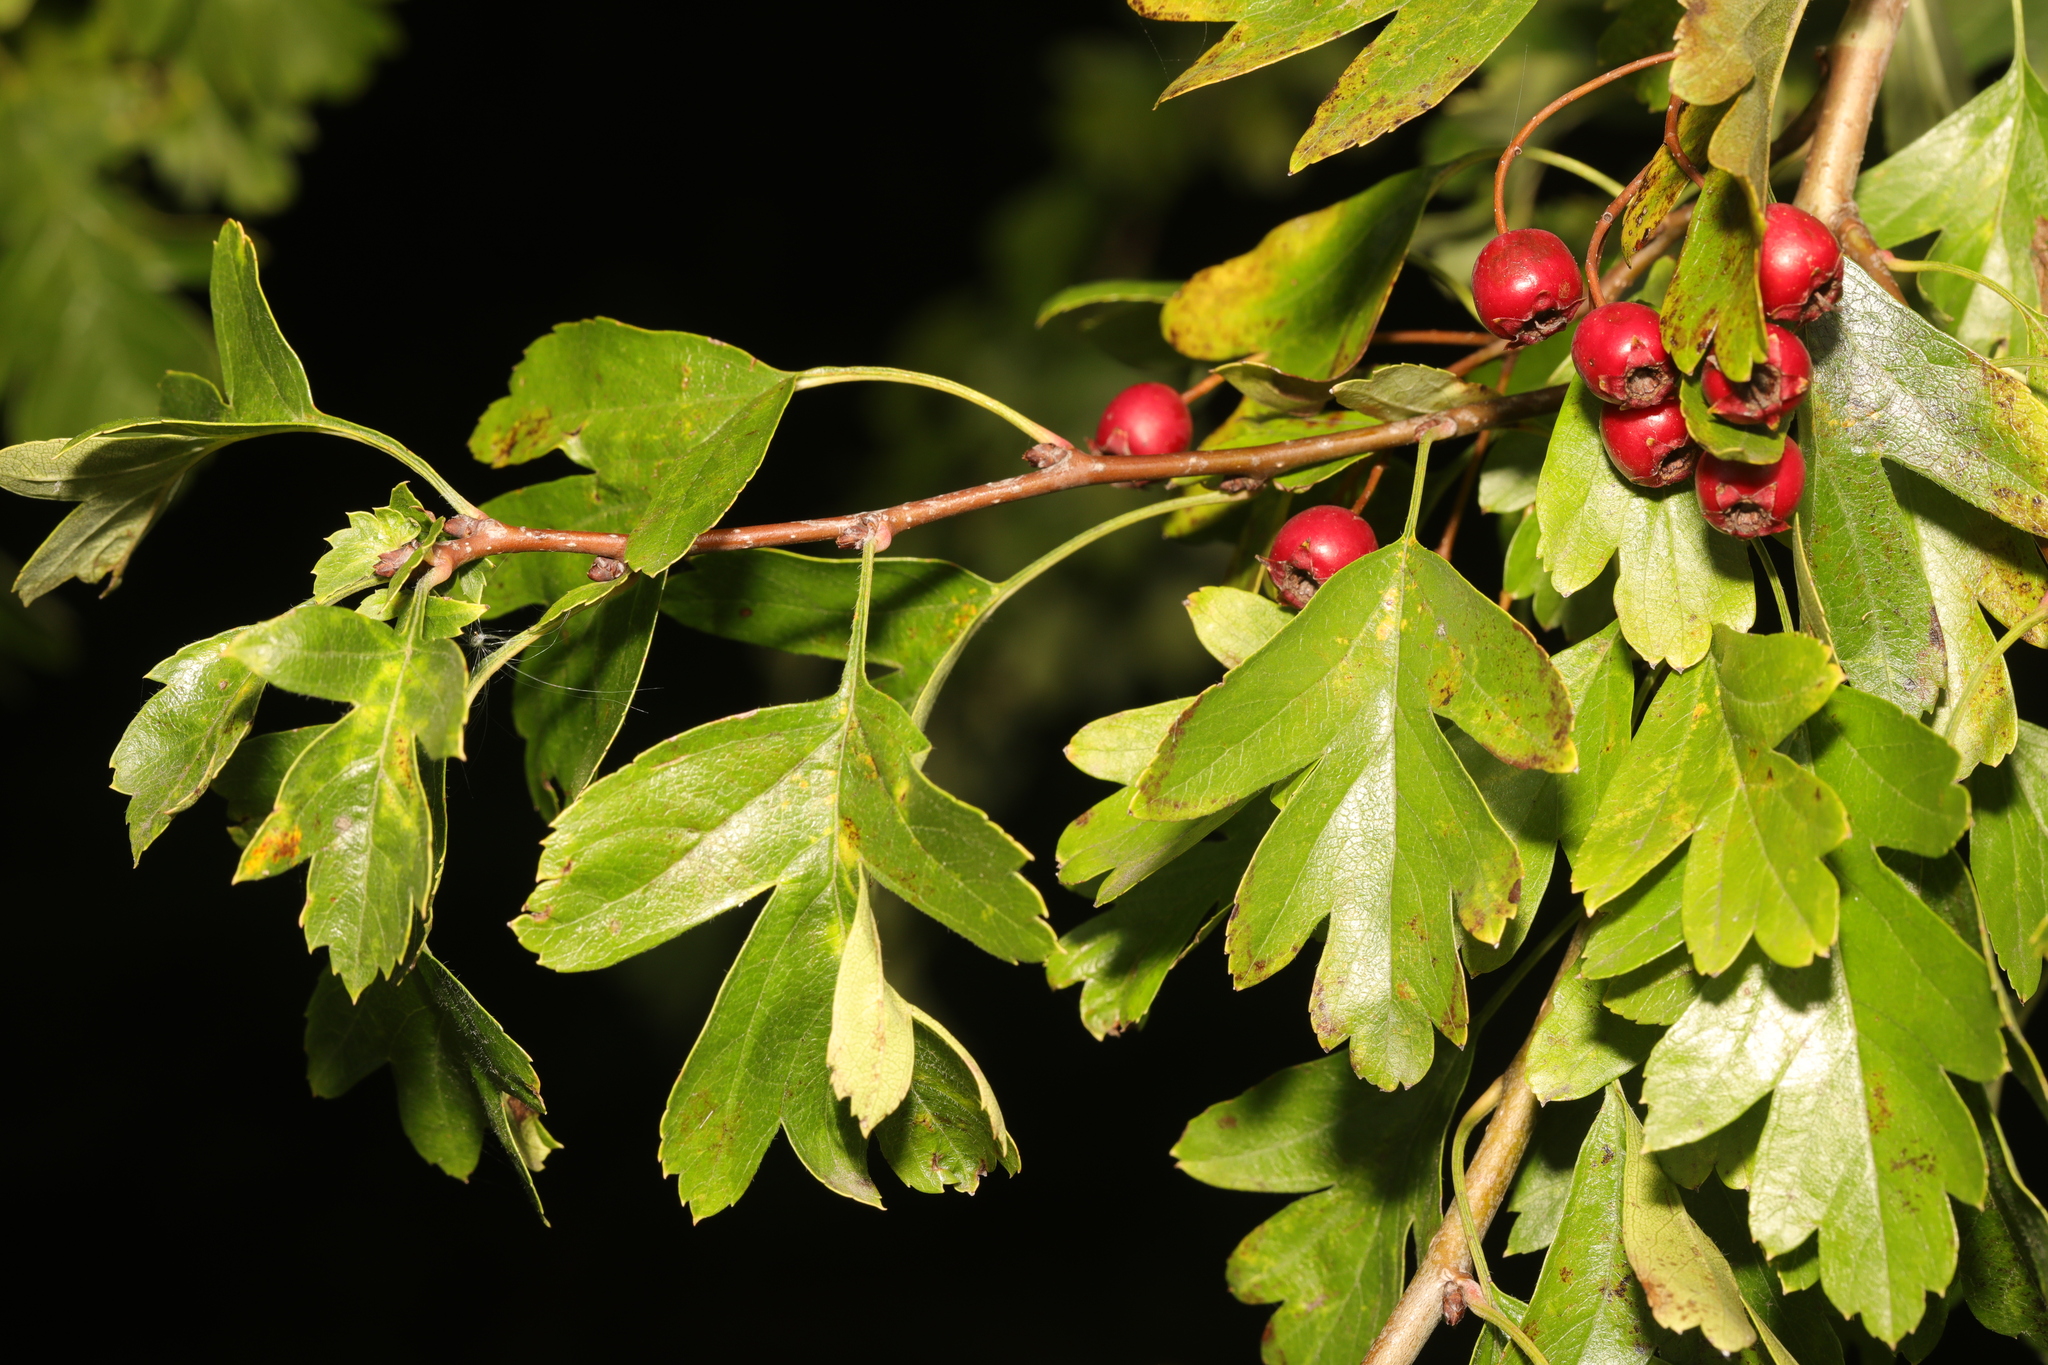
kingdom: Plantae
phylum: Tracheophyta
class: Magnoliopsida
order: Rosales
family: Rosaceae
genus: Crataegus
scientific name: Crataegus monogyna
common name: Hawthorn
